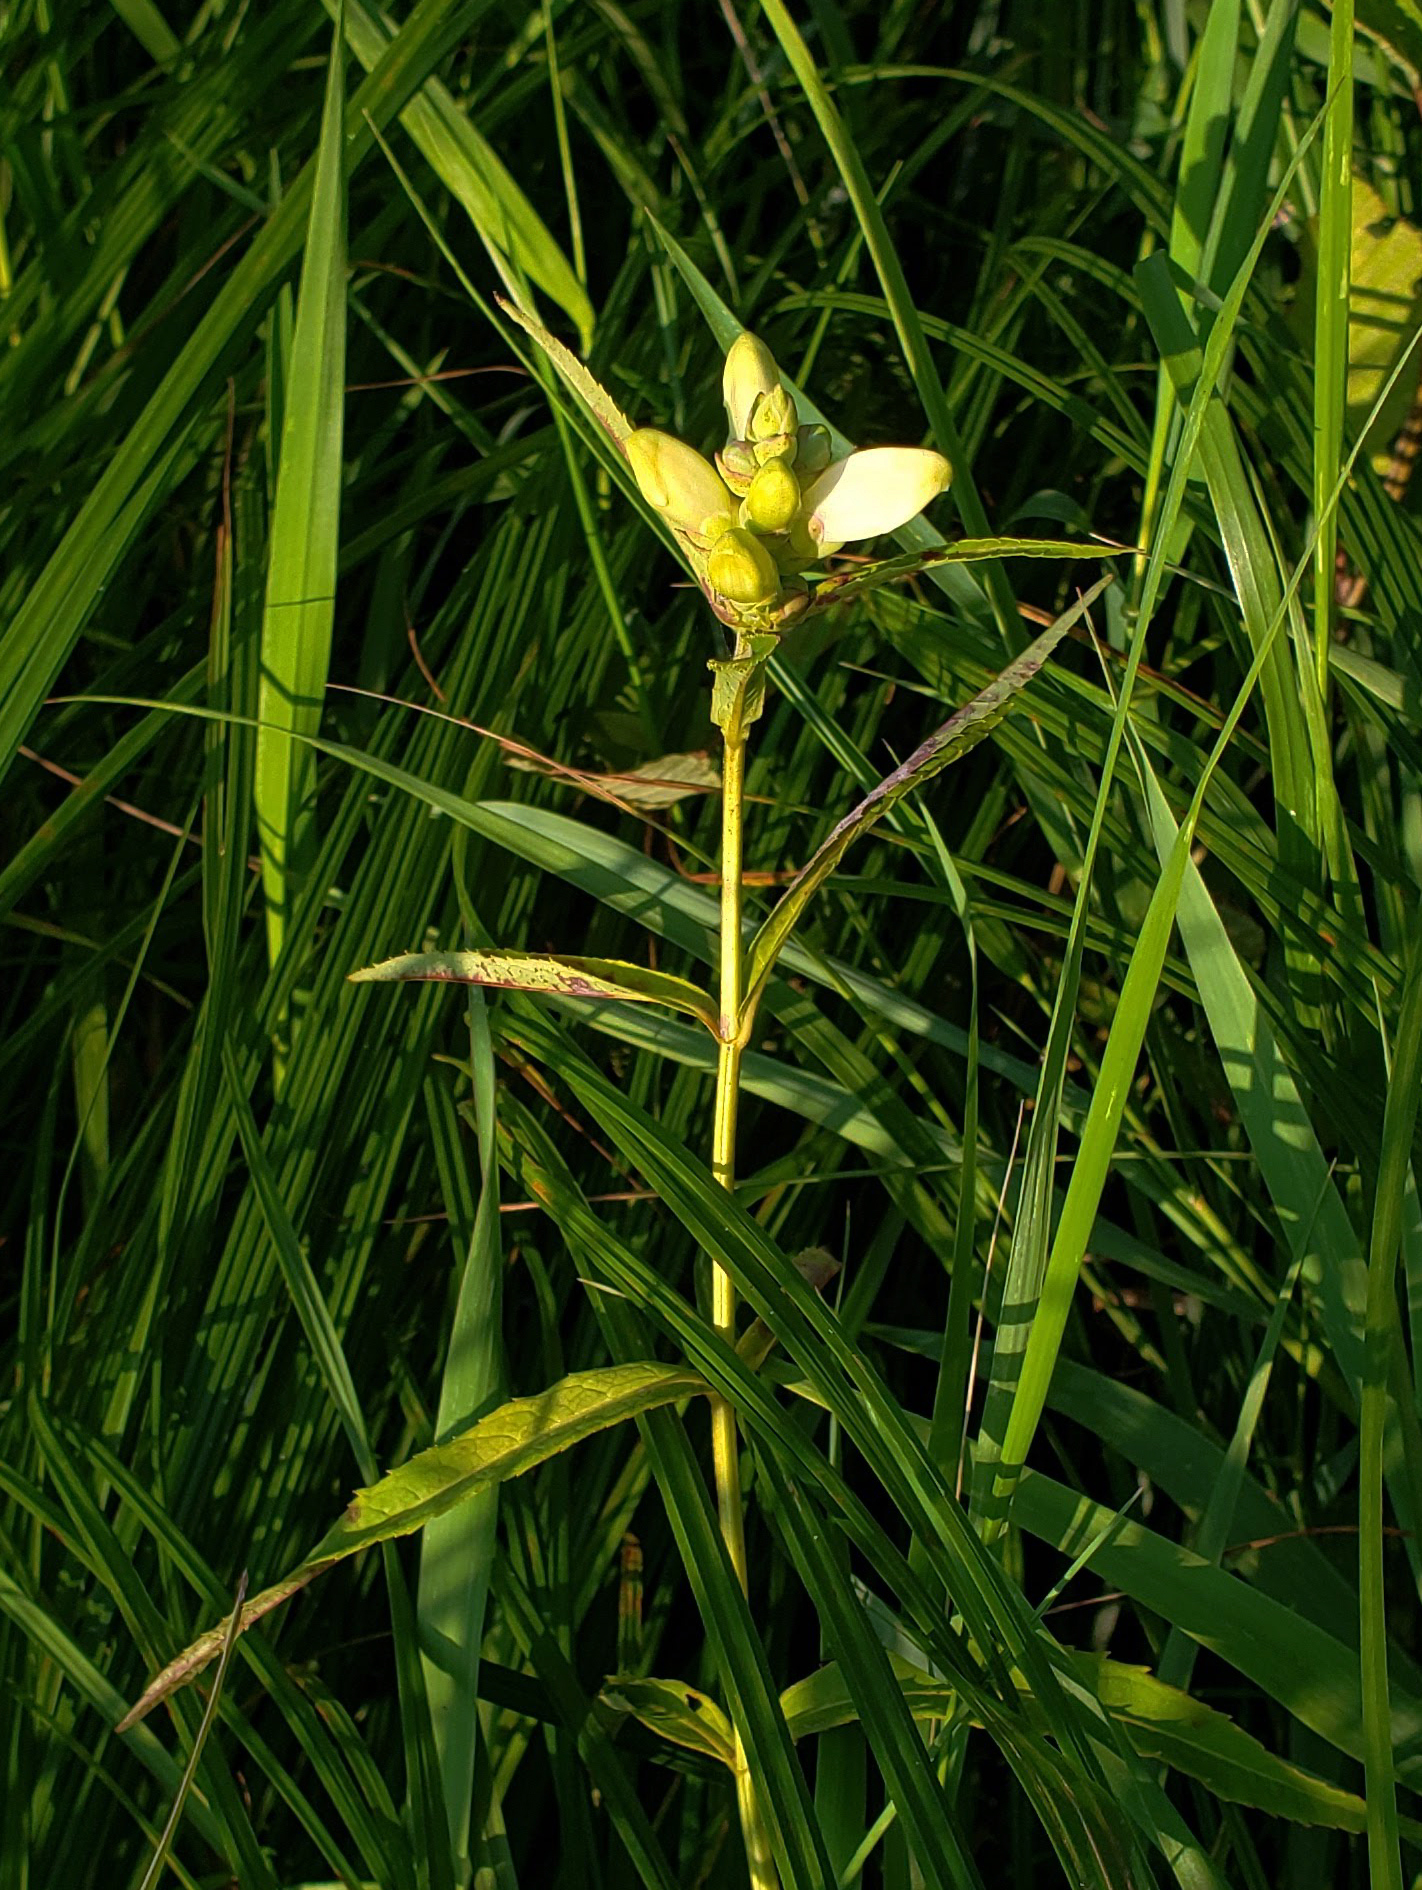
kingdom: Plantae
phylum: Tracheophyta
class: Magnoliopsida
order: Lamiales
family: Plantaginaceae
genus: Chelone
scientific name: Chelone glabra
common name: Snakehead
